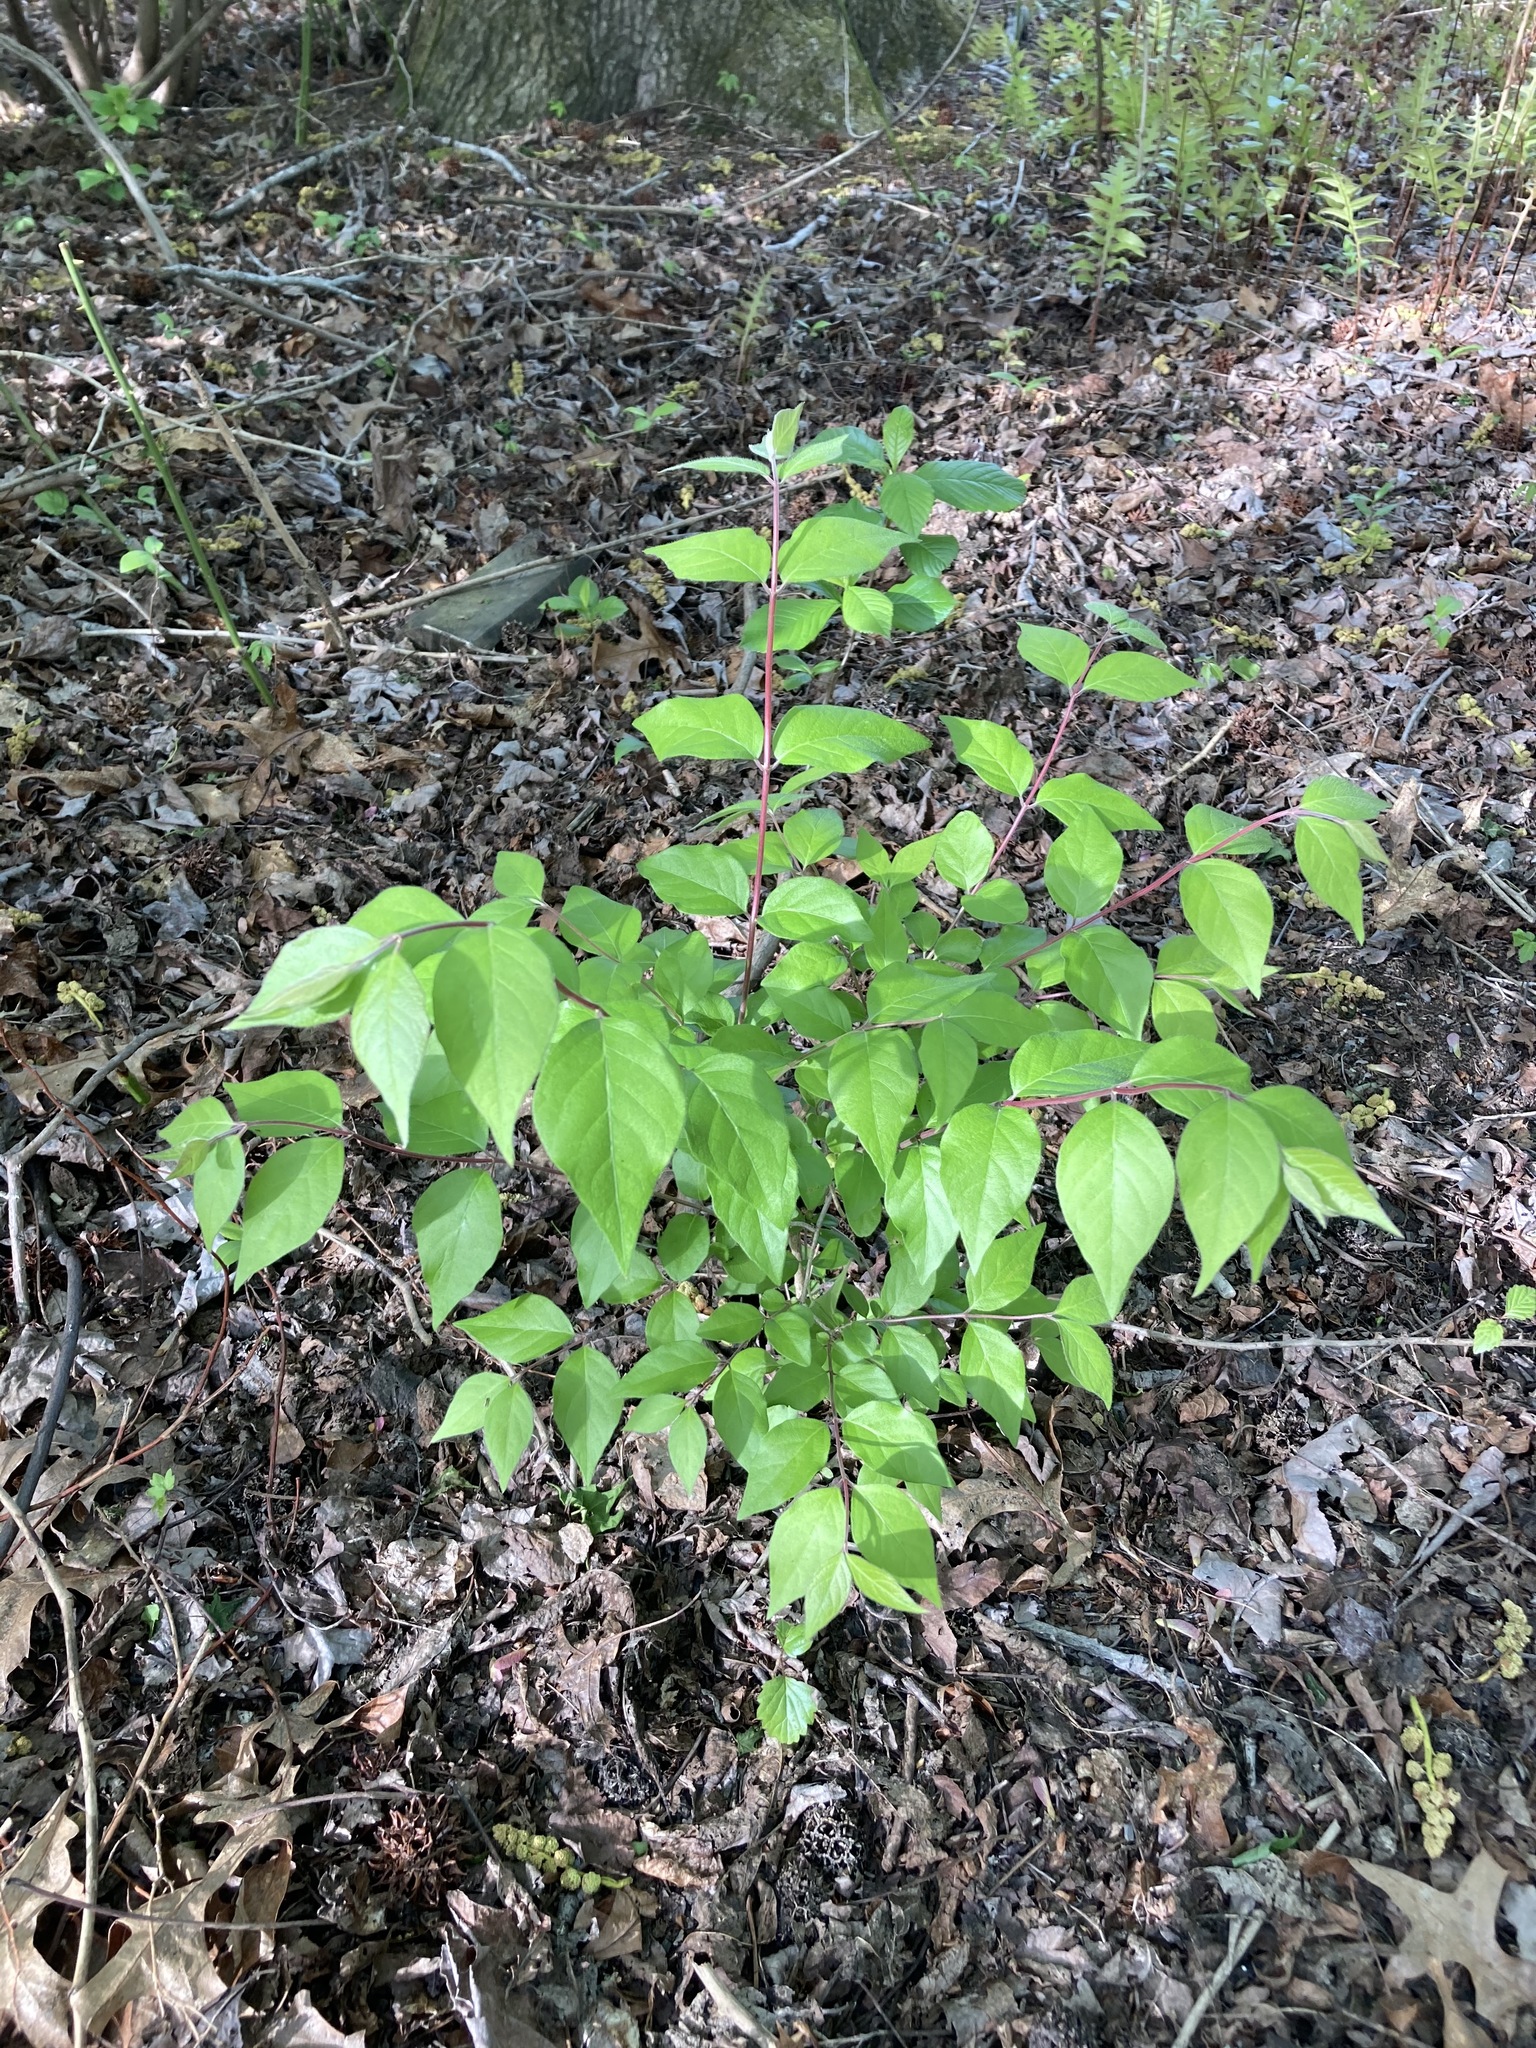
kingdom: Plantae
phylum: Tracheophyta
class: Magnoliopsida
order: Dipsacales
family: Caprifoliaceae
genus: Lonicera
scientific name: Lonicera maackii
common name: Amur honeysuckle
